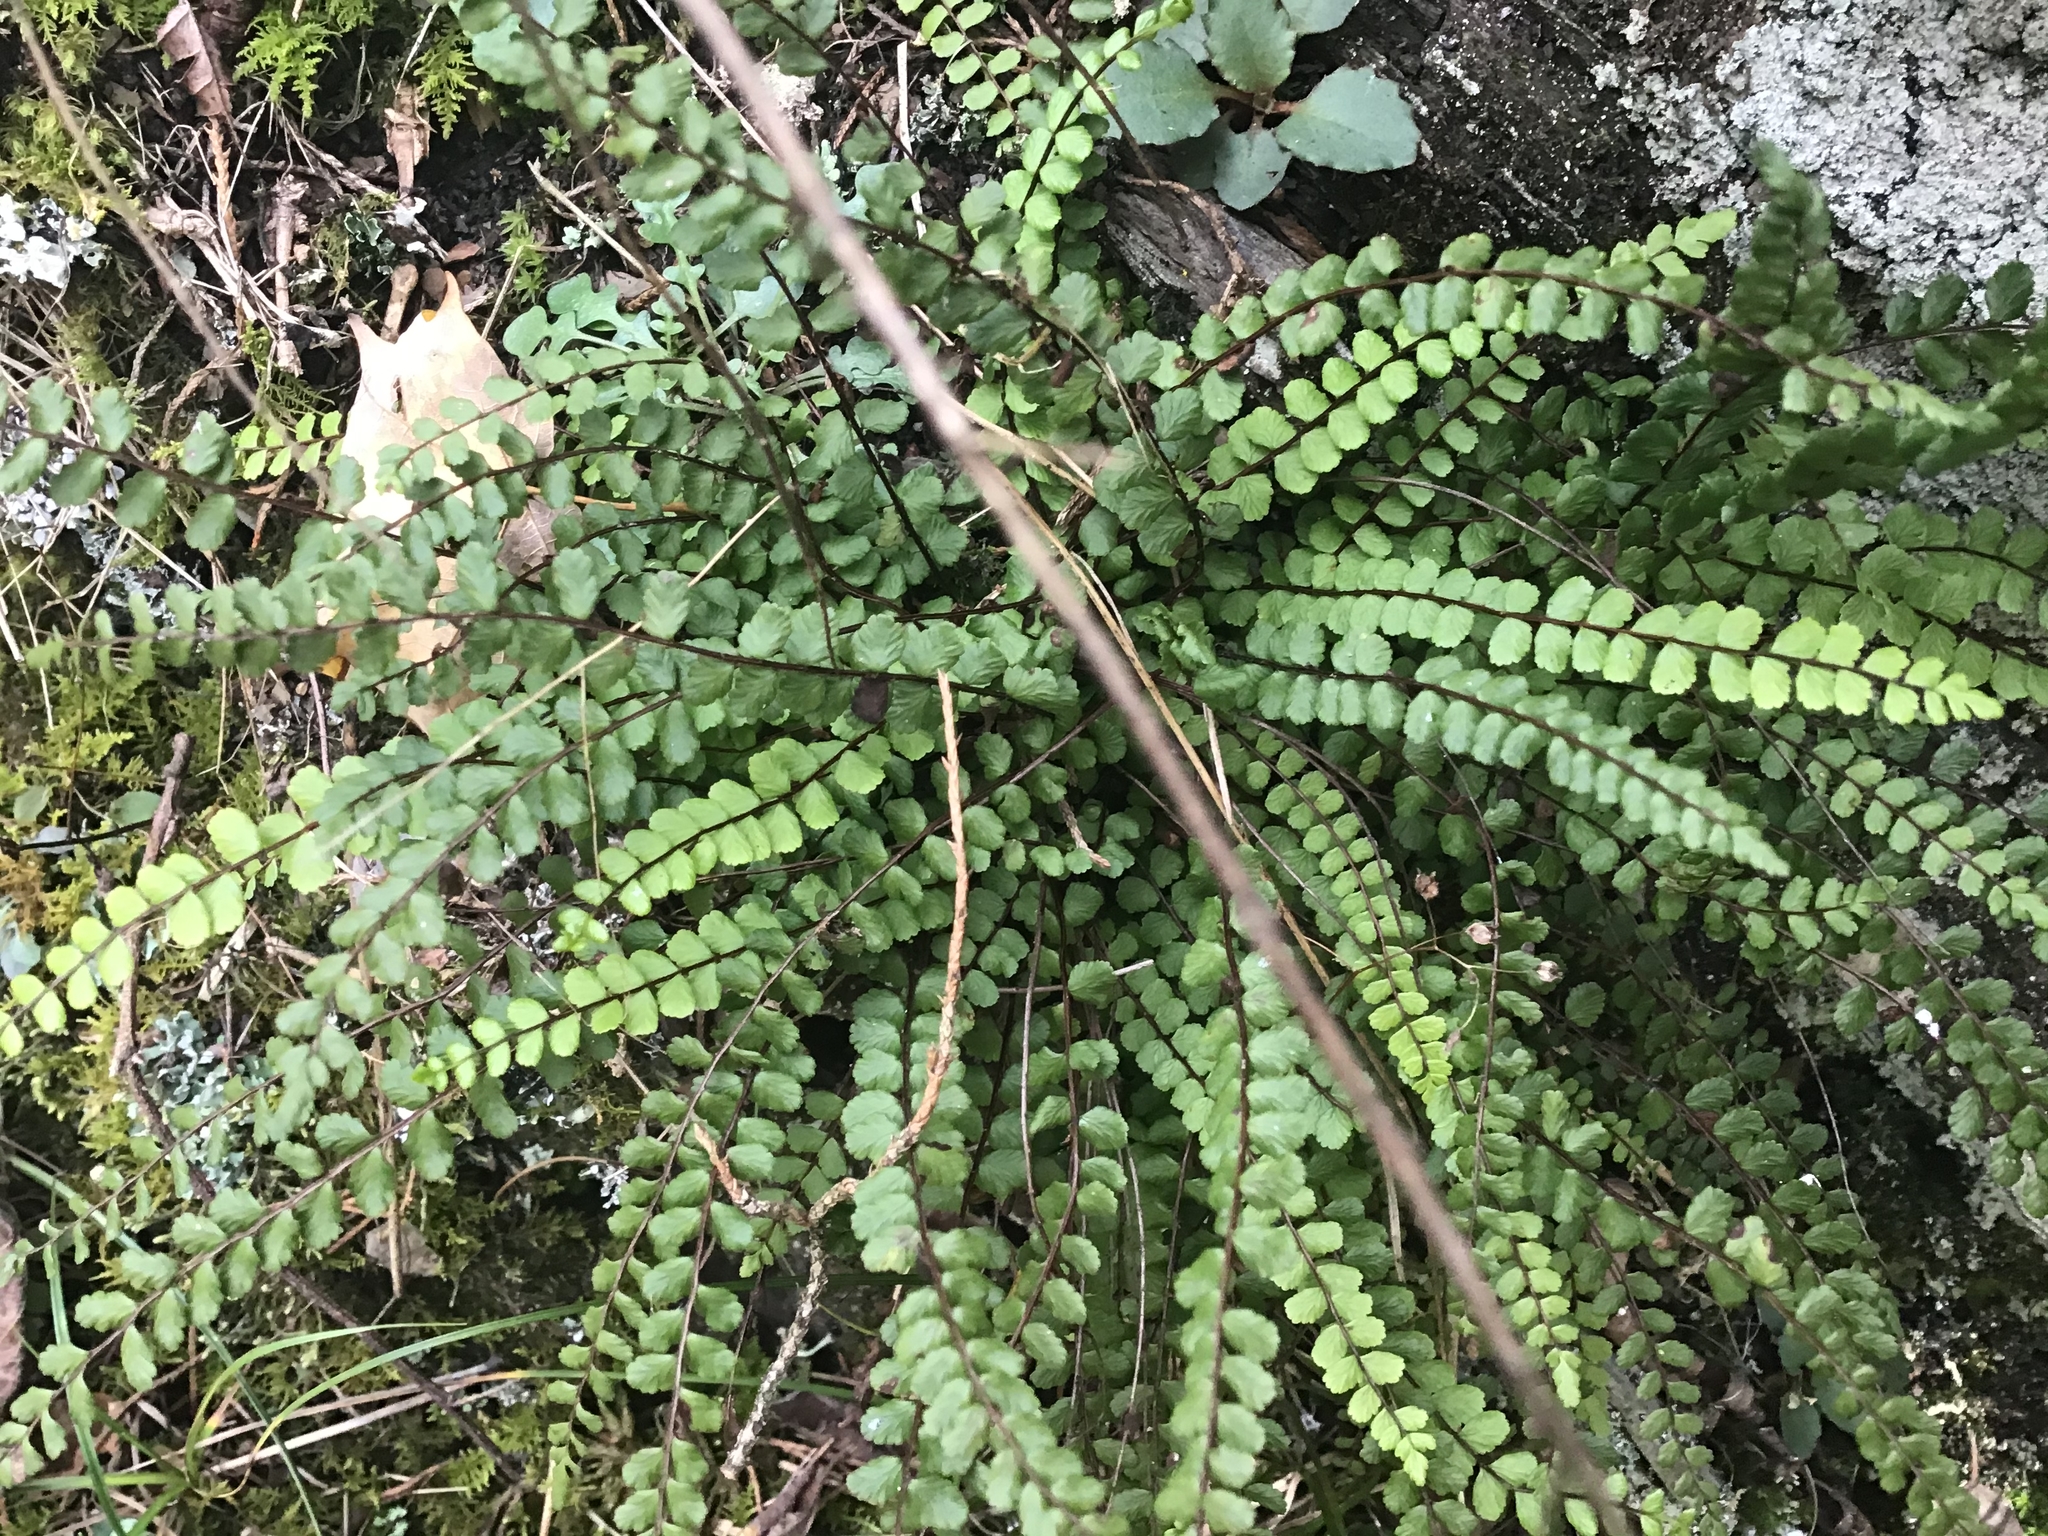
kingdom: Plantae
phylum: Tracheophyta
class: Polypodiopsida
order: Polypodiales
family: Aspleniaceae
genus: Asplenium
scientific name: Asplenium trichomanes
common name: Maidenhair spleenwort
